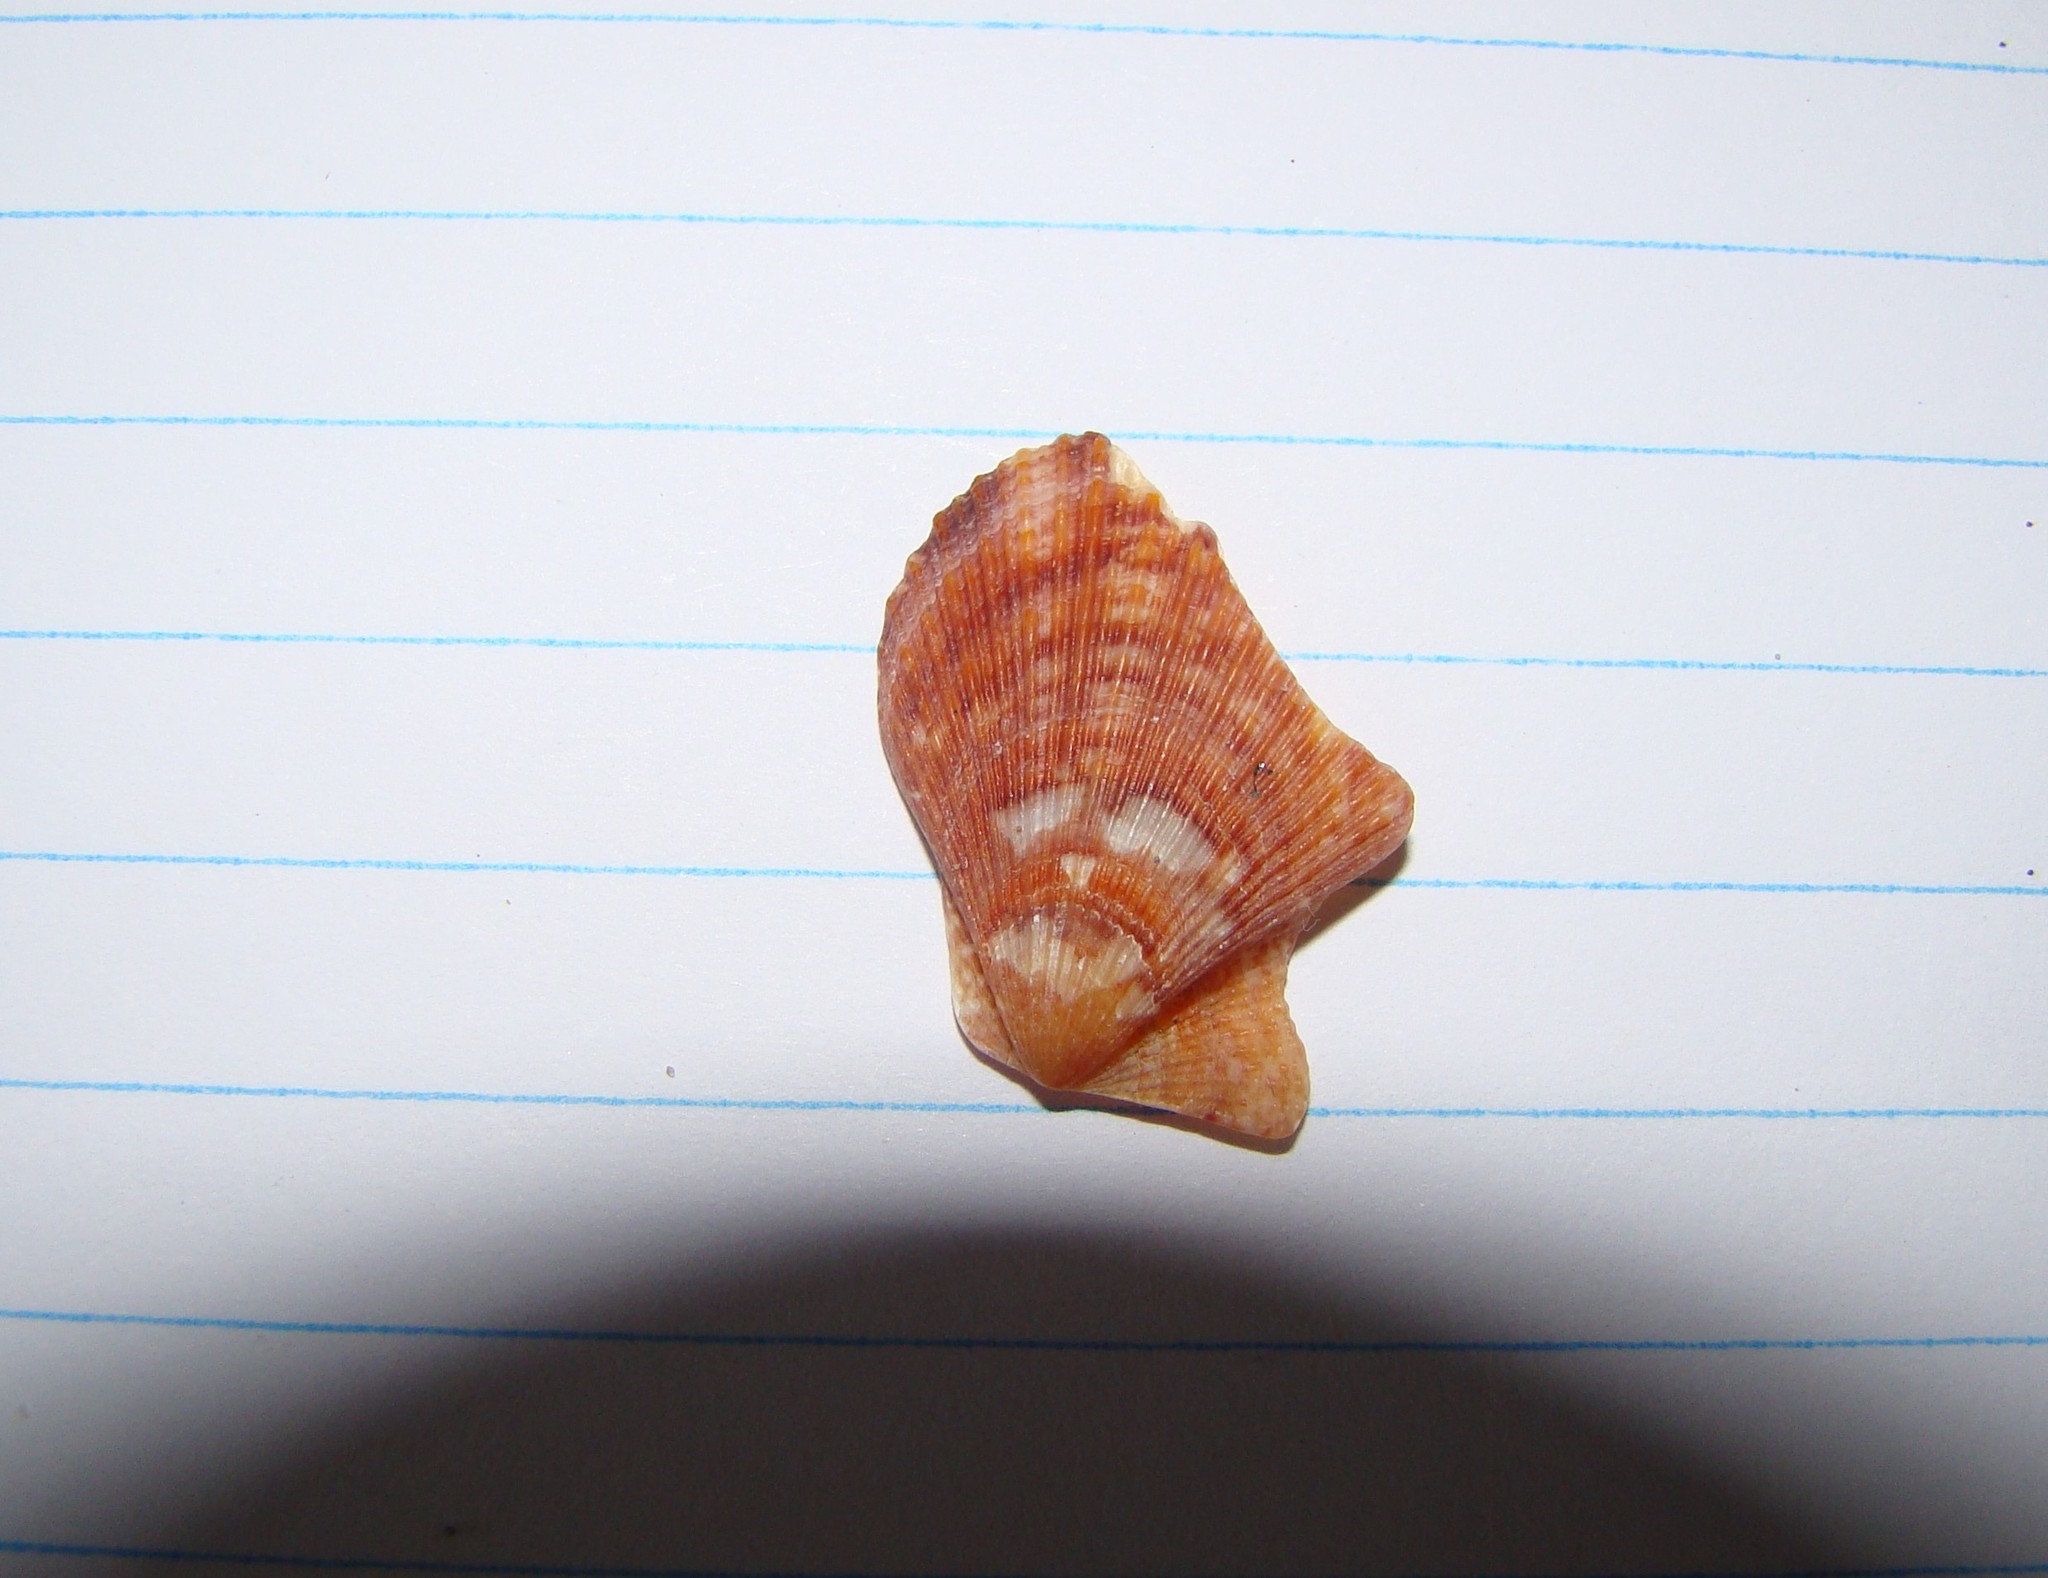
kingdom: Animalia
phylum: Mollusca
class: Bivalvia
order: Pectinida
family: Pectinidae
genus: Talochlamys
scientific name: Talochlamys zelandiae
